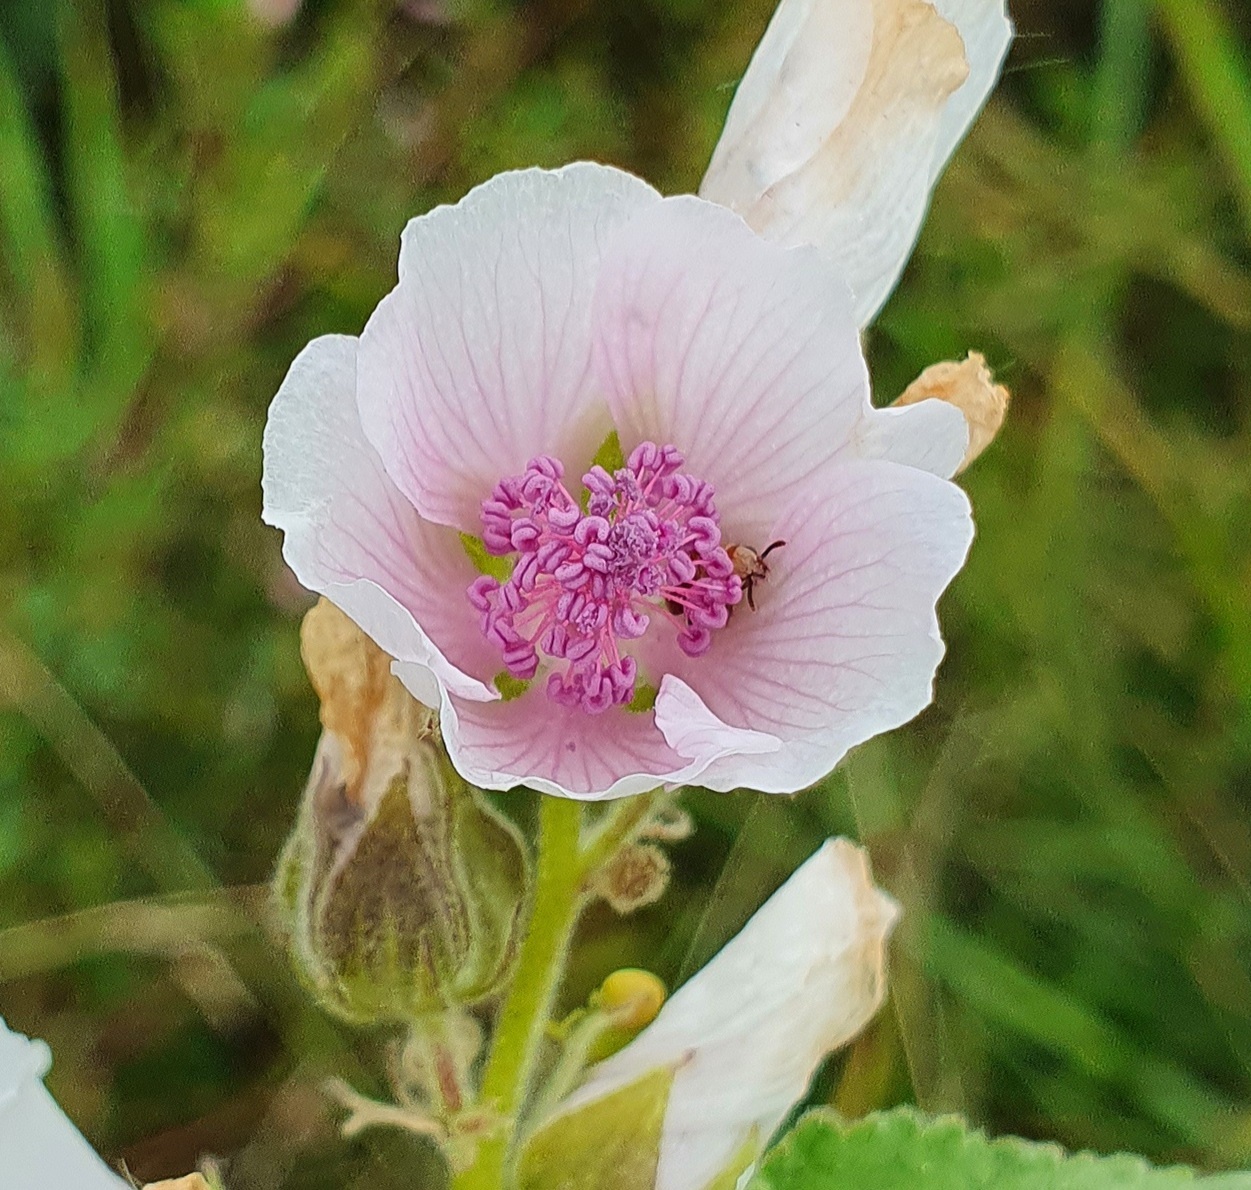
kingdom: Plantae
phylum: Tracheophyta
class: Magnoliopsida
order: Malvales
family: Malvaceae
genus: Althaea
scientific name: Althaea officinalis
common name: Marsh-mallow
